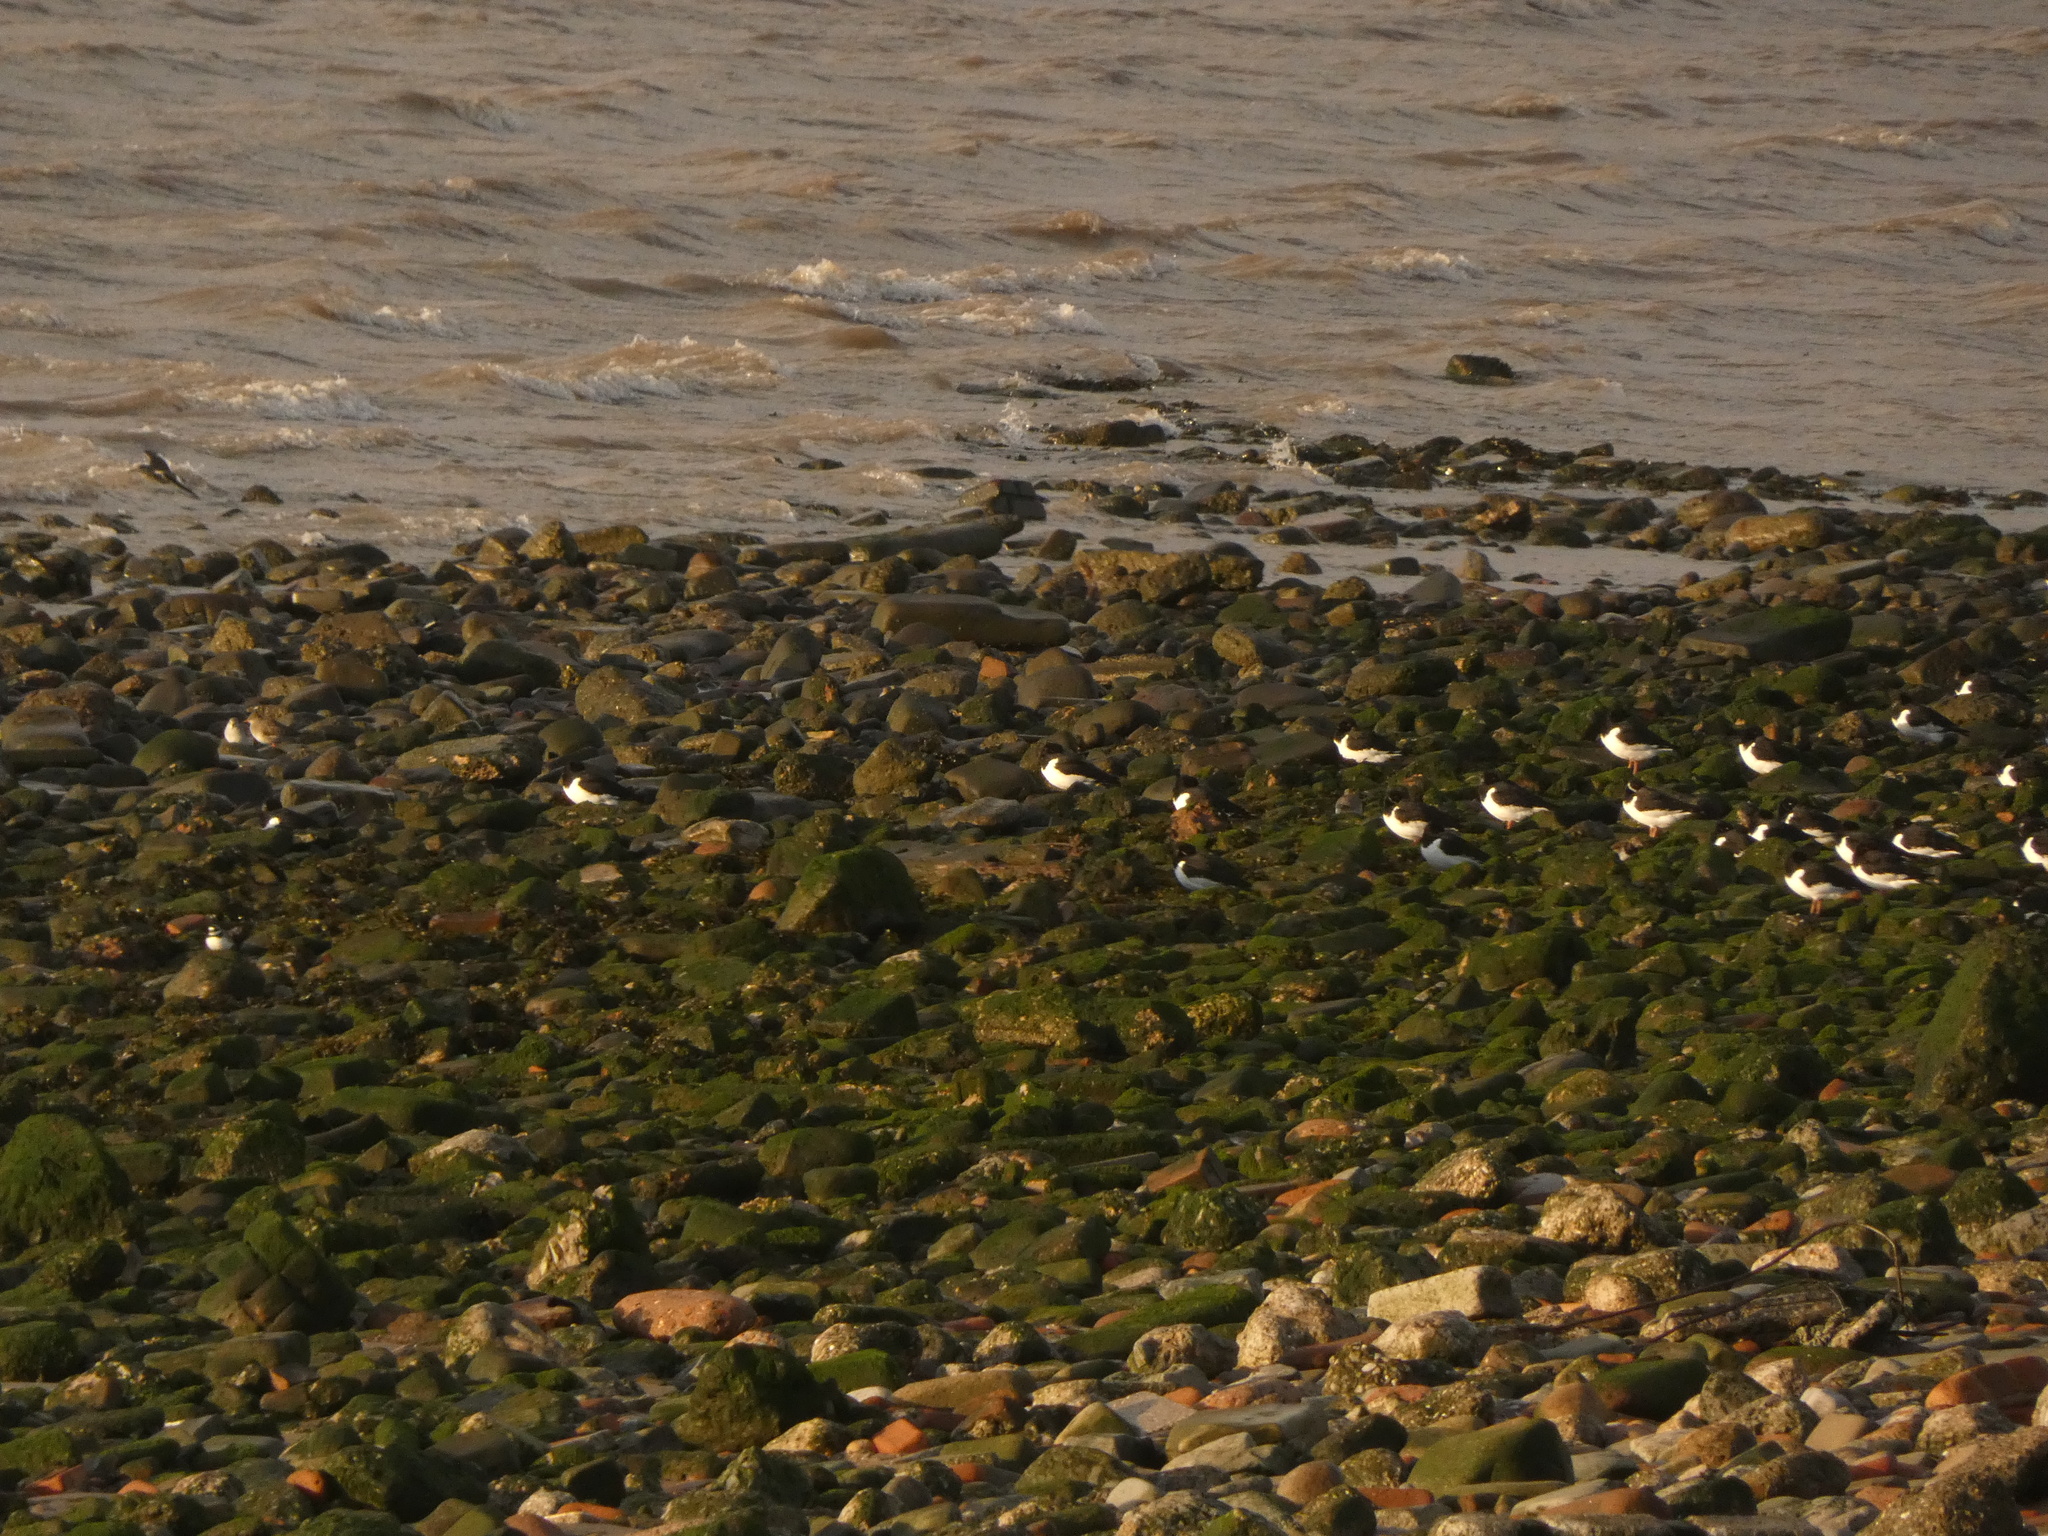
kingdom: Animalia
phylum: Chordata
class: Aves
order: Charadriiformes
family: Haematopodidae
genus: Haematopus
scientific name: Haematopus ostralegus
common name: Eurasian oystercatcher
